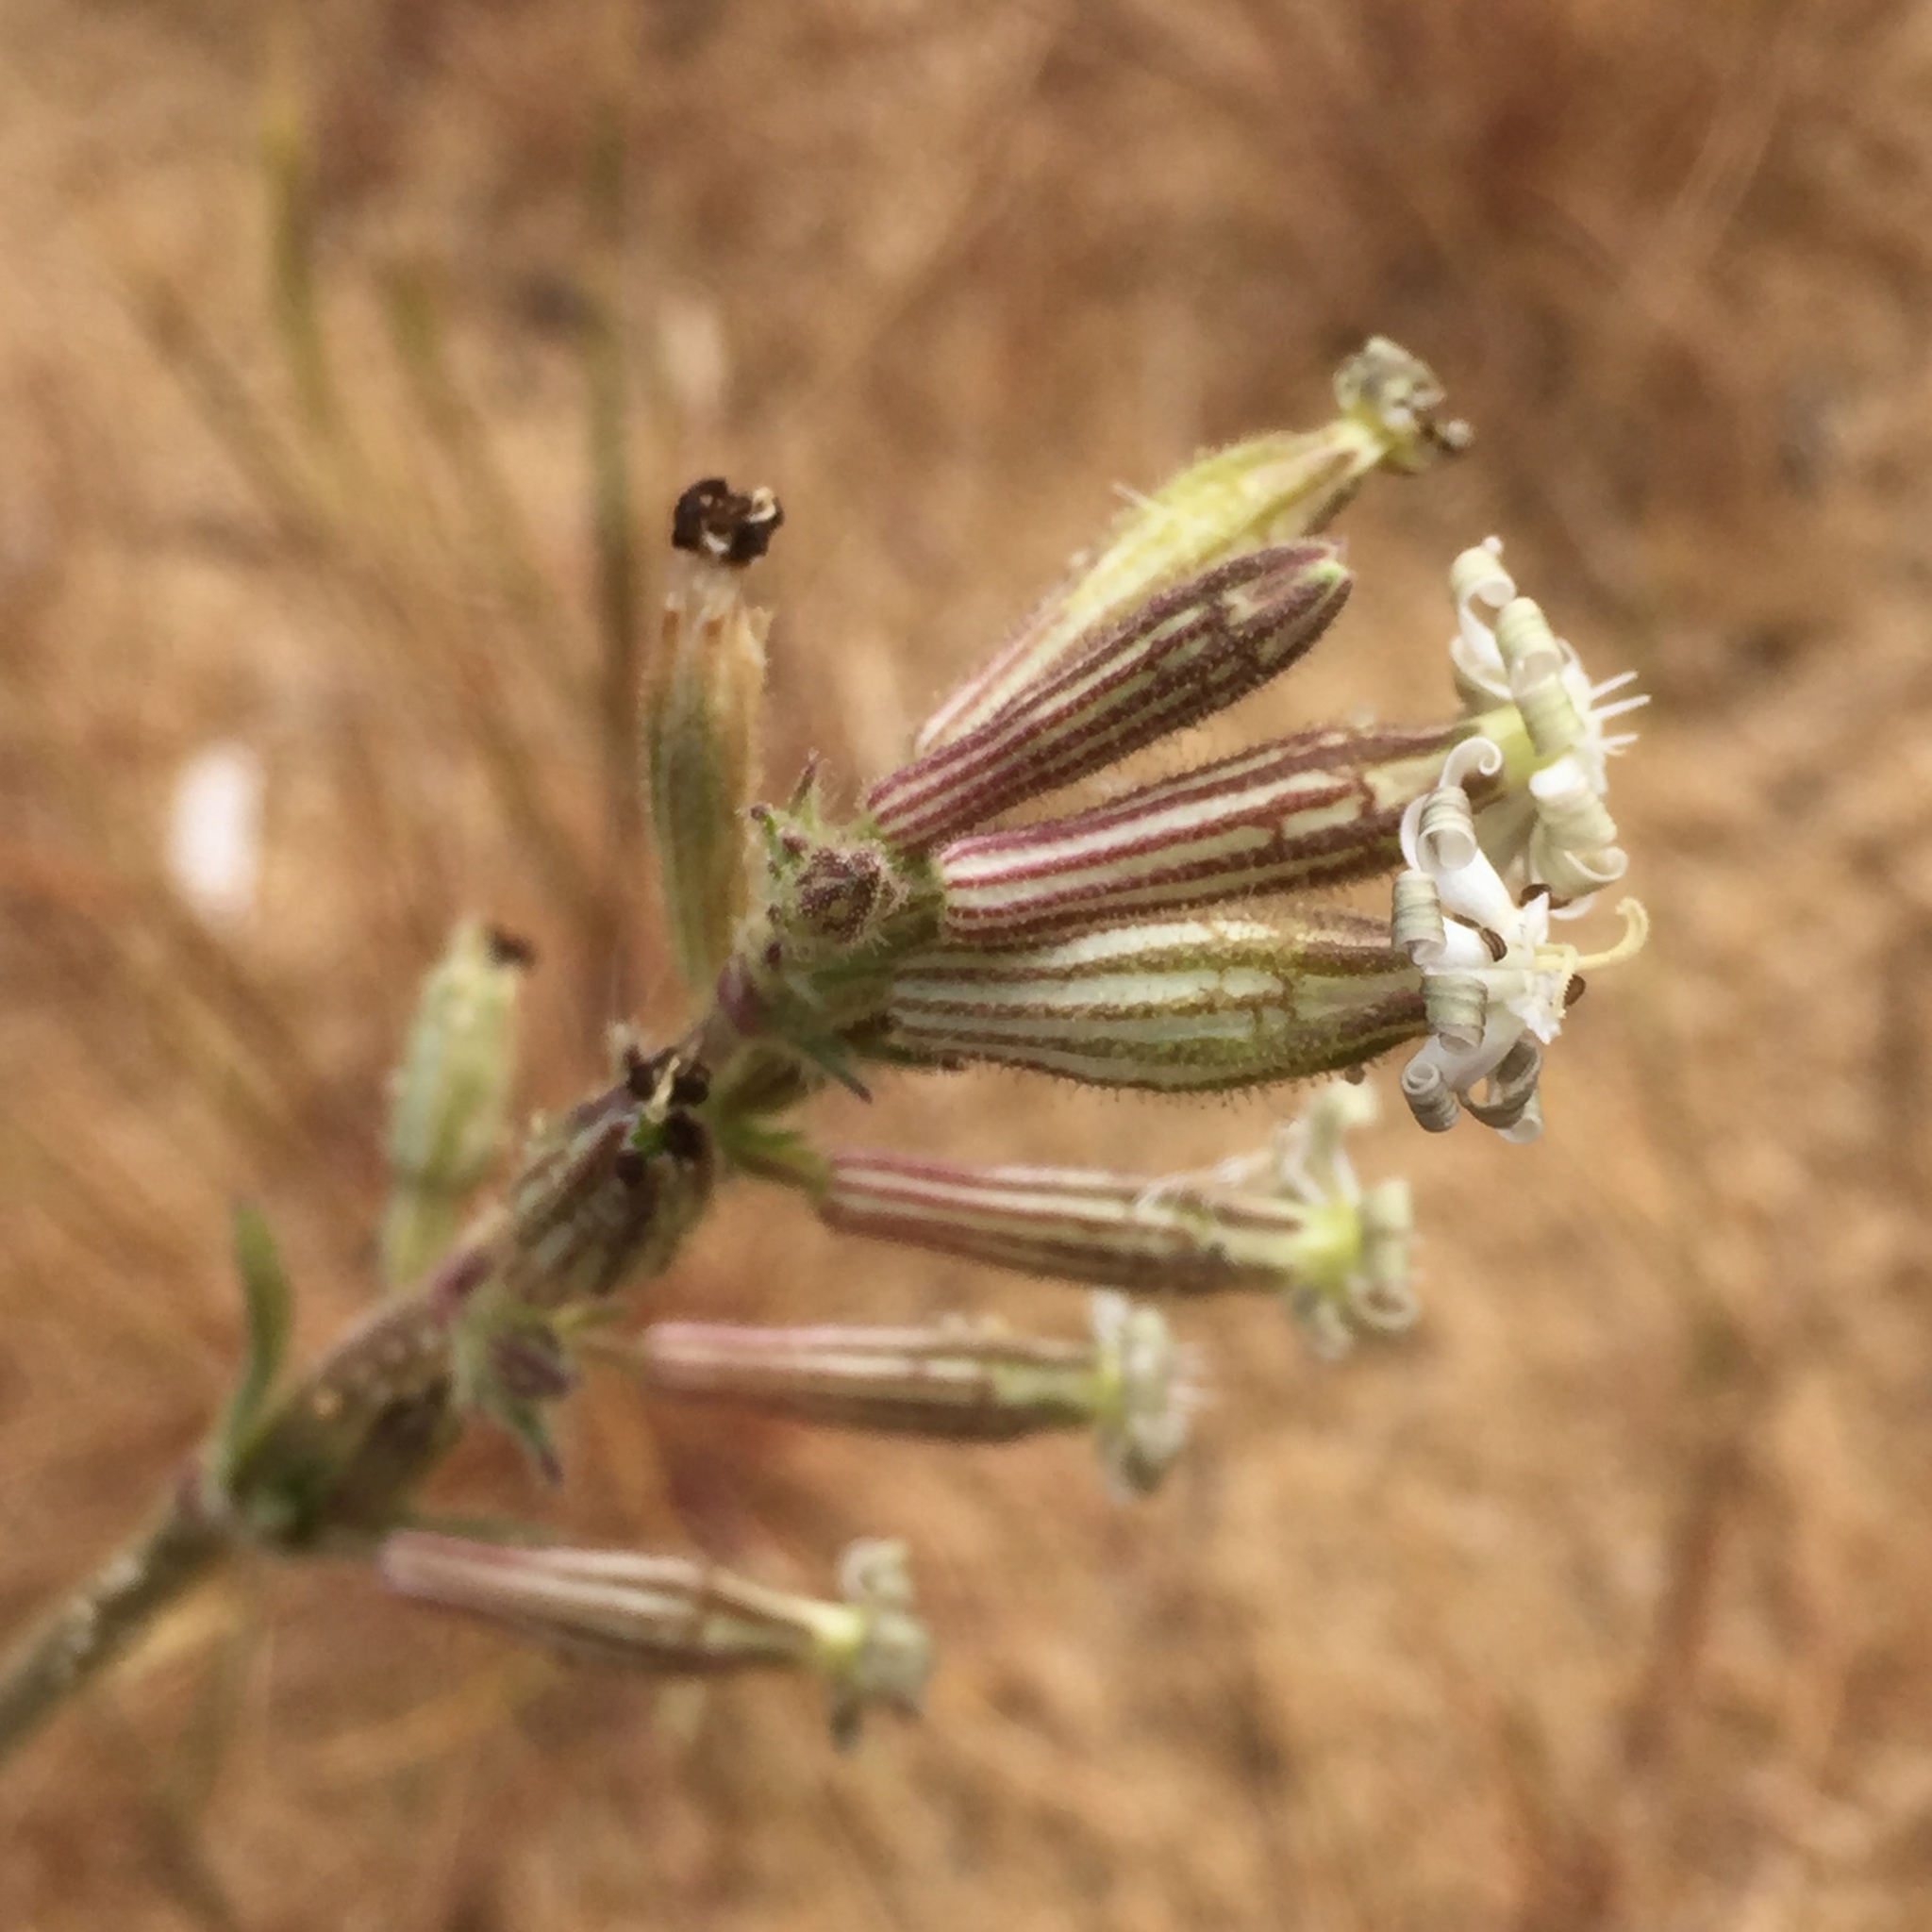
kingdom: Plantae
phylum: Tracheophyta
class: Magnoliopsida
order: Caryophyllales
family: Caryophyllaceae
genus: Silene
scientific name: Silene nicaeensis
